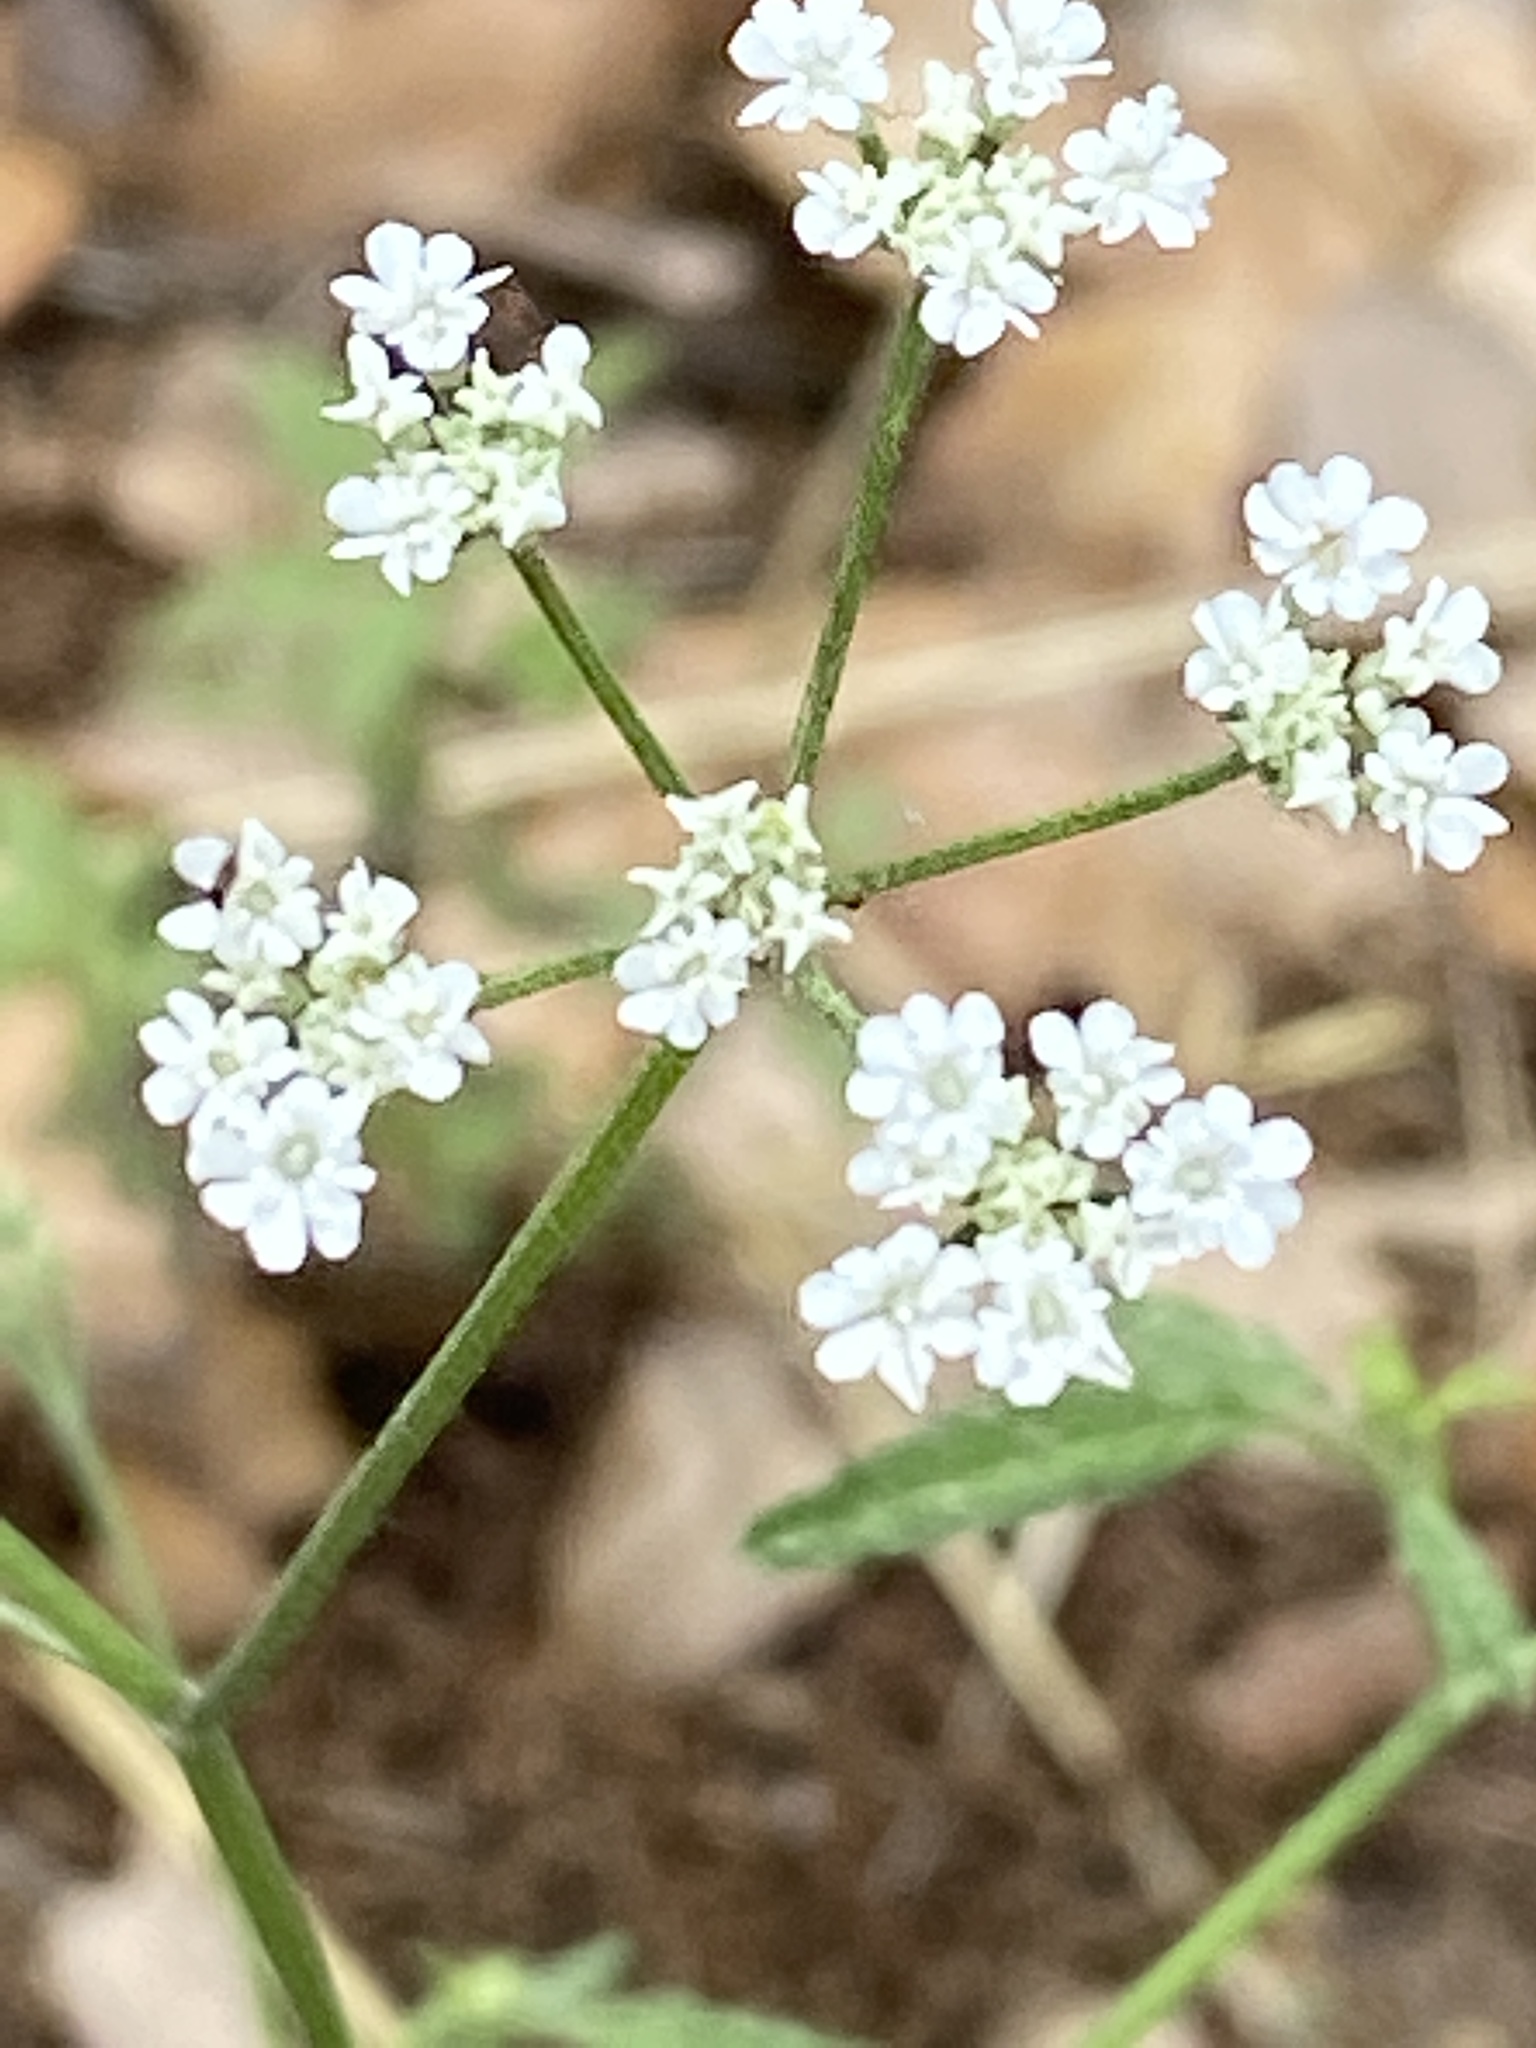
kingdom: Plantae
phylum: Tracheophyta
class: Magnoliopsida
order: Apiales
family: Apiaceae
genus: Torilis
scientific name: Torilis arvensis
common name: Spreading hedge-parsley
